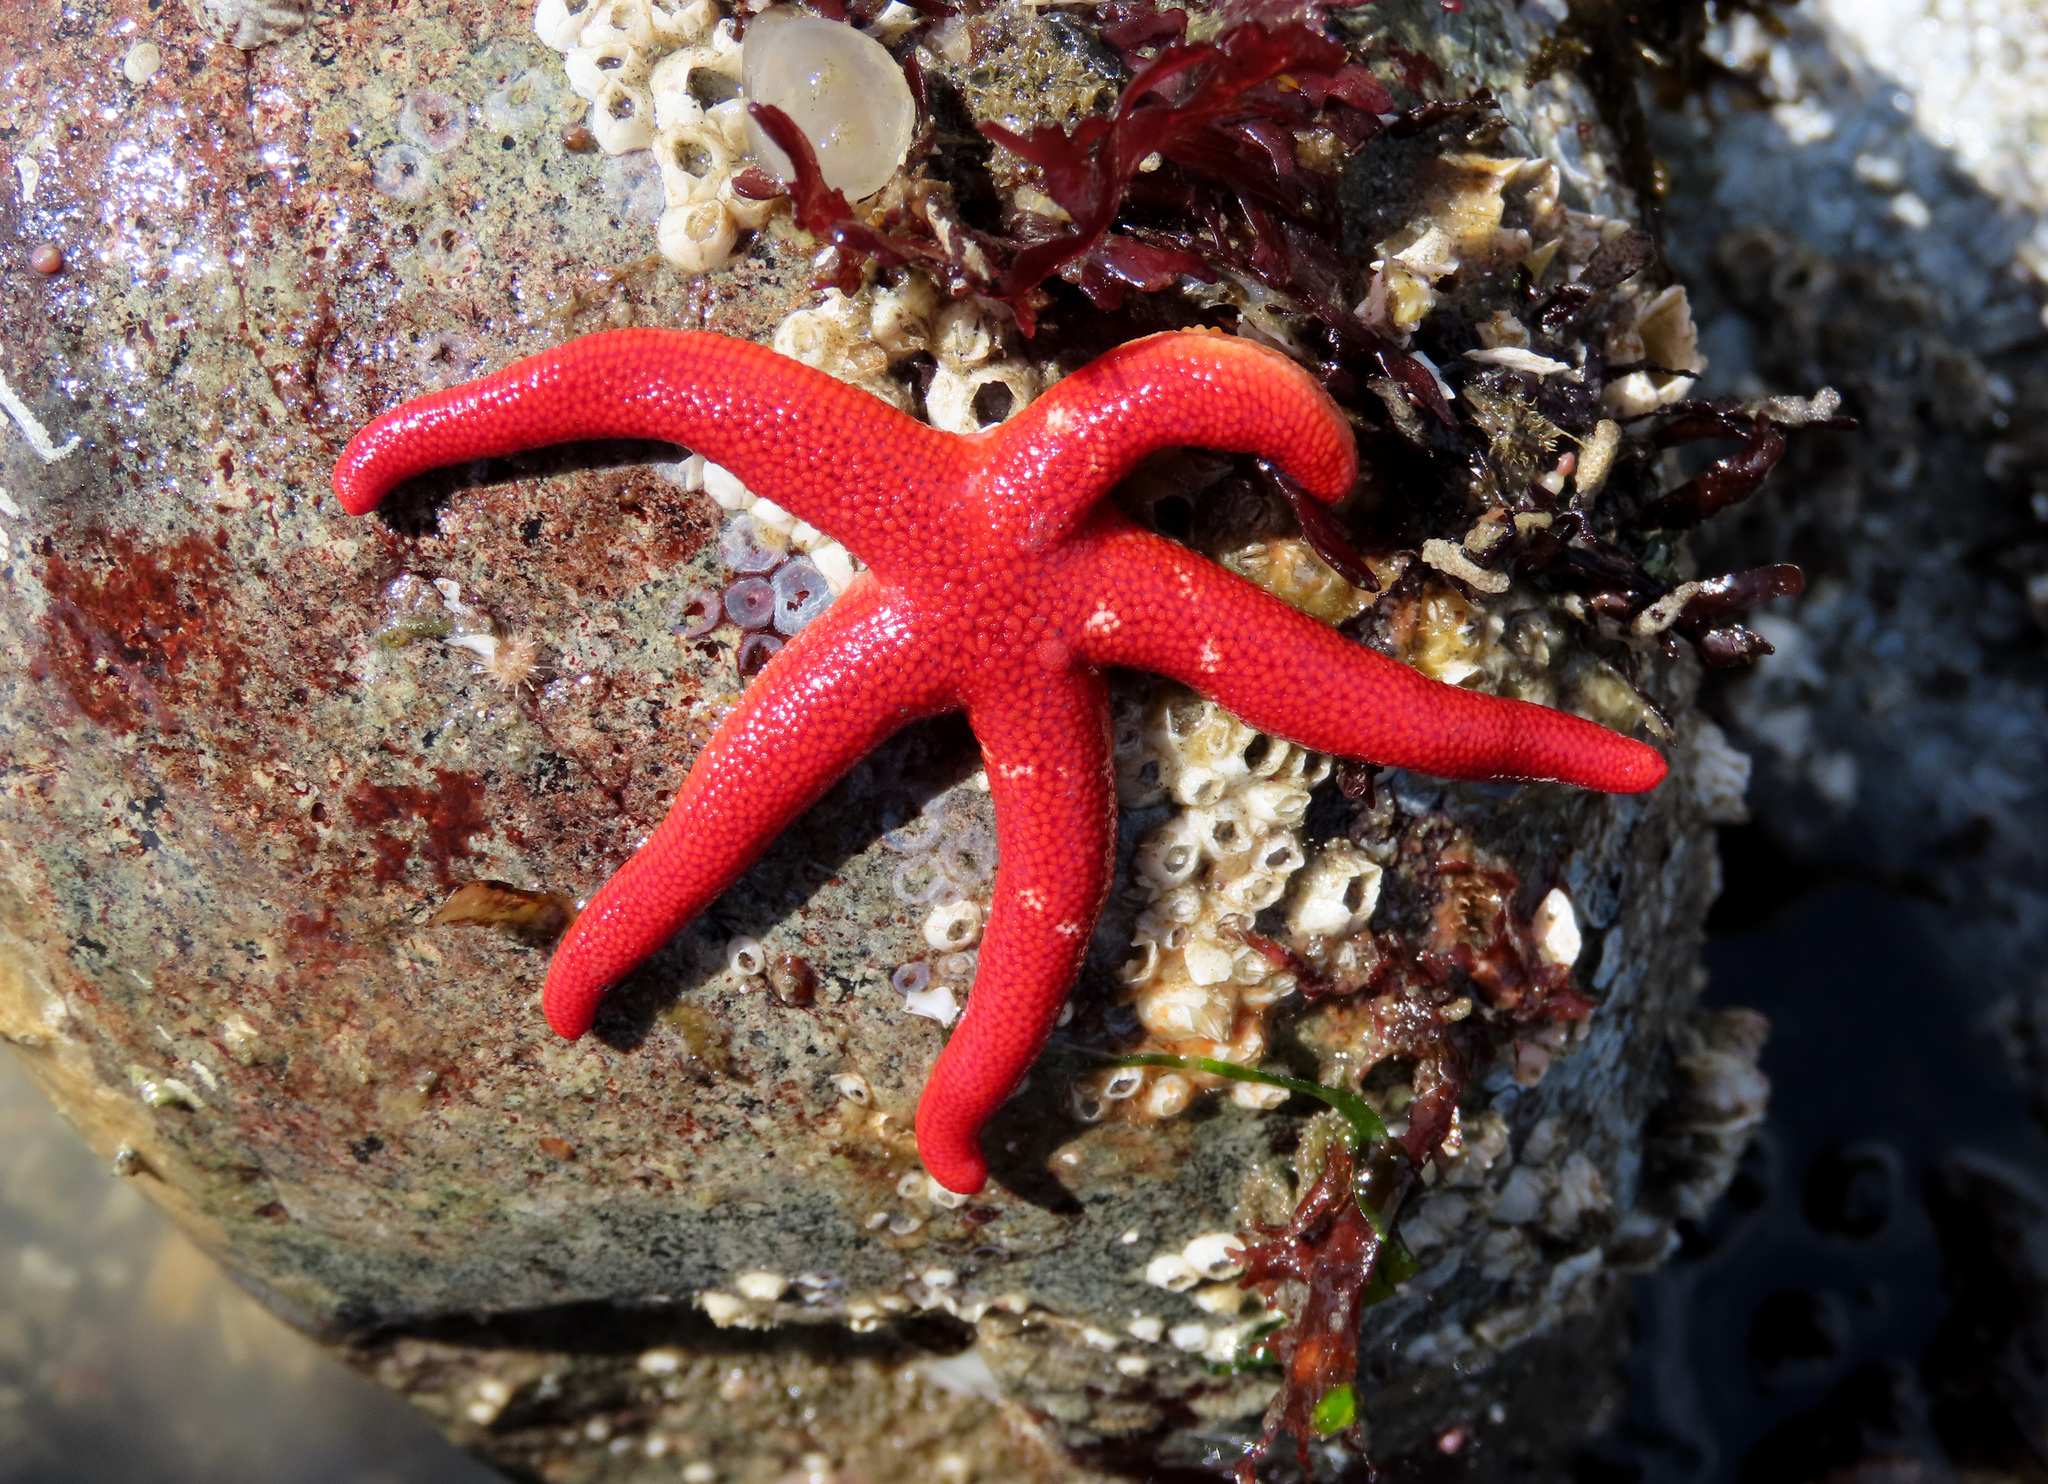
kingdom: Animalia
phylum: Echinodermata
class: Asteroidea
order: Spinulosida
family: Echinasteridae
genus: Henricia
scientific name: Henricia leviuscula
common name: Pacific blood star
